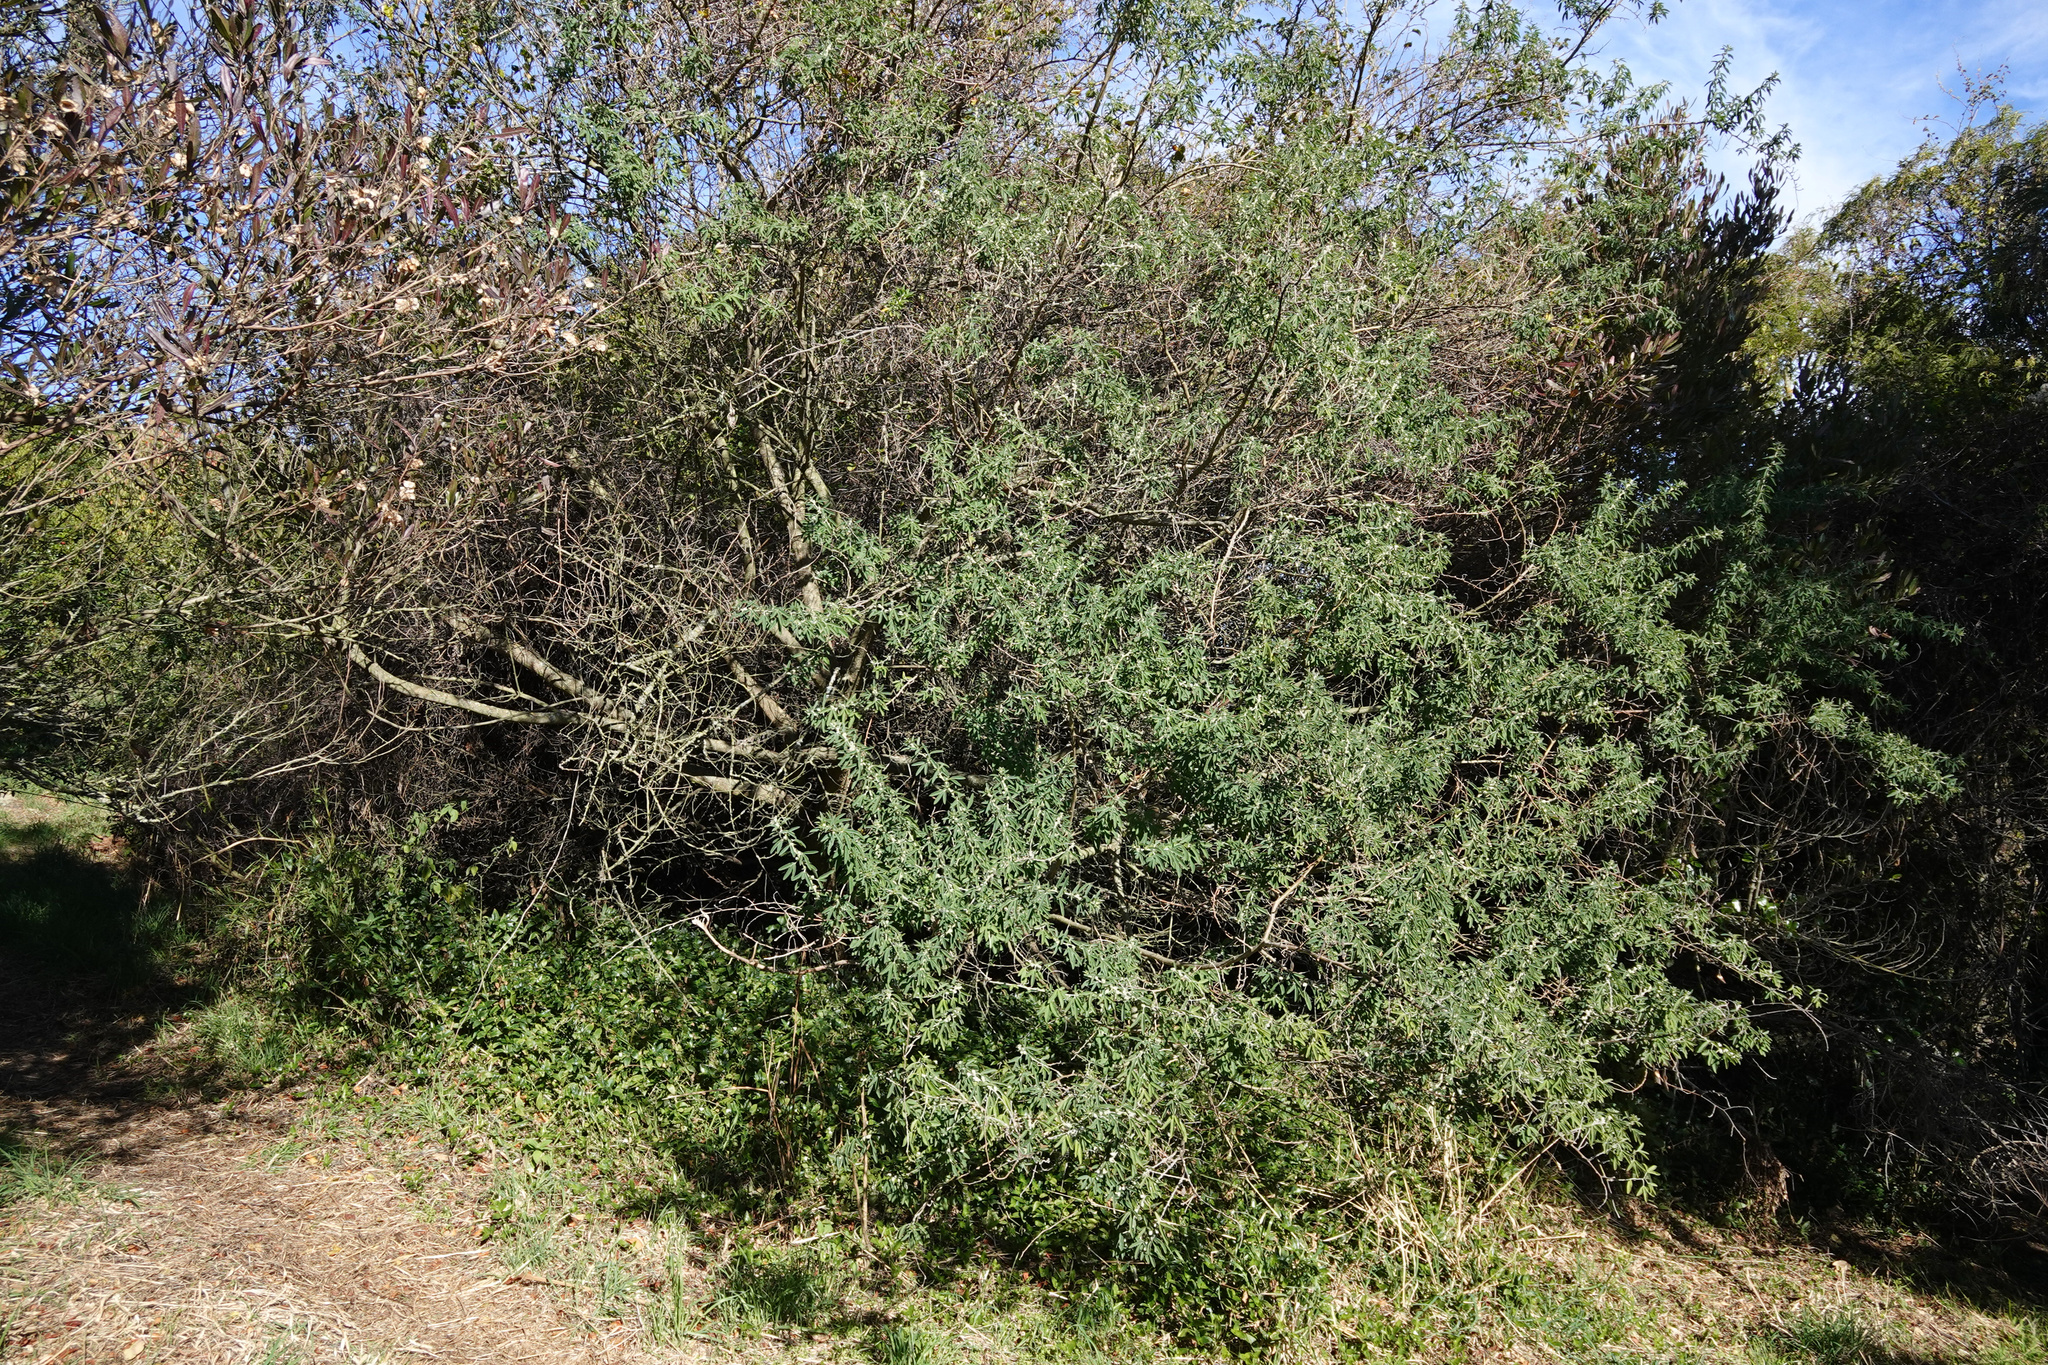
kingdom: Plantae
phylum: Tracheophyta
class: Magnoliopsida
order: Fabales
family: Fabaceae
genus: Chamaecytisus
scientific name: Chamaecytisus prolifer
